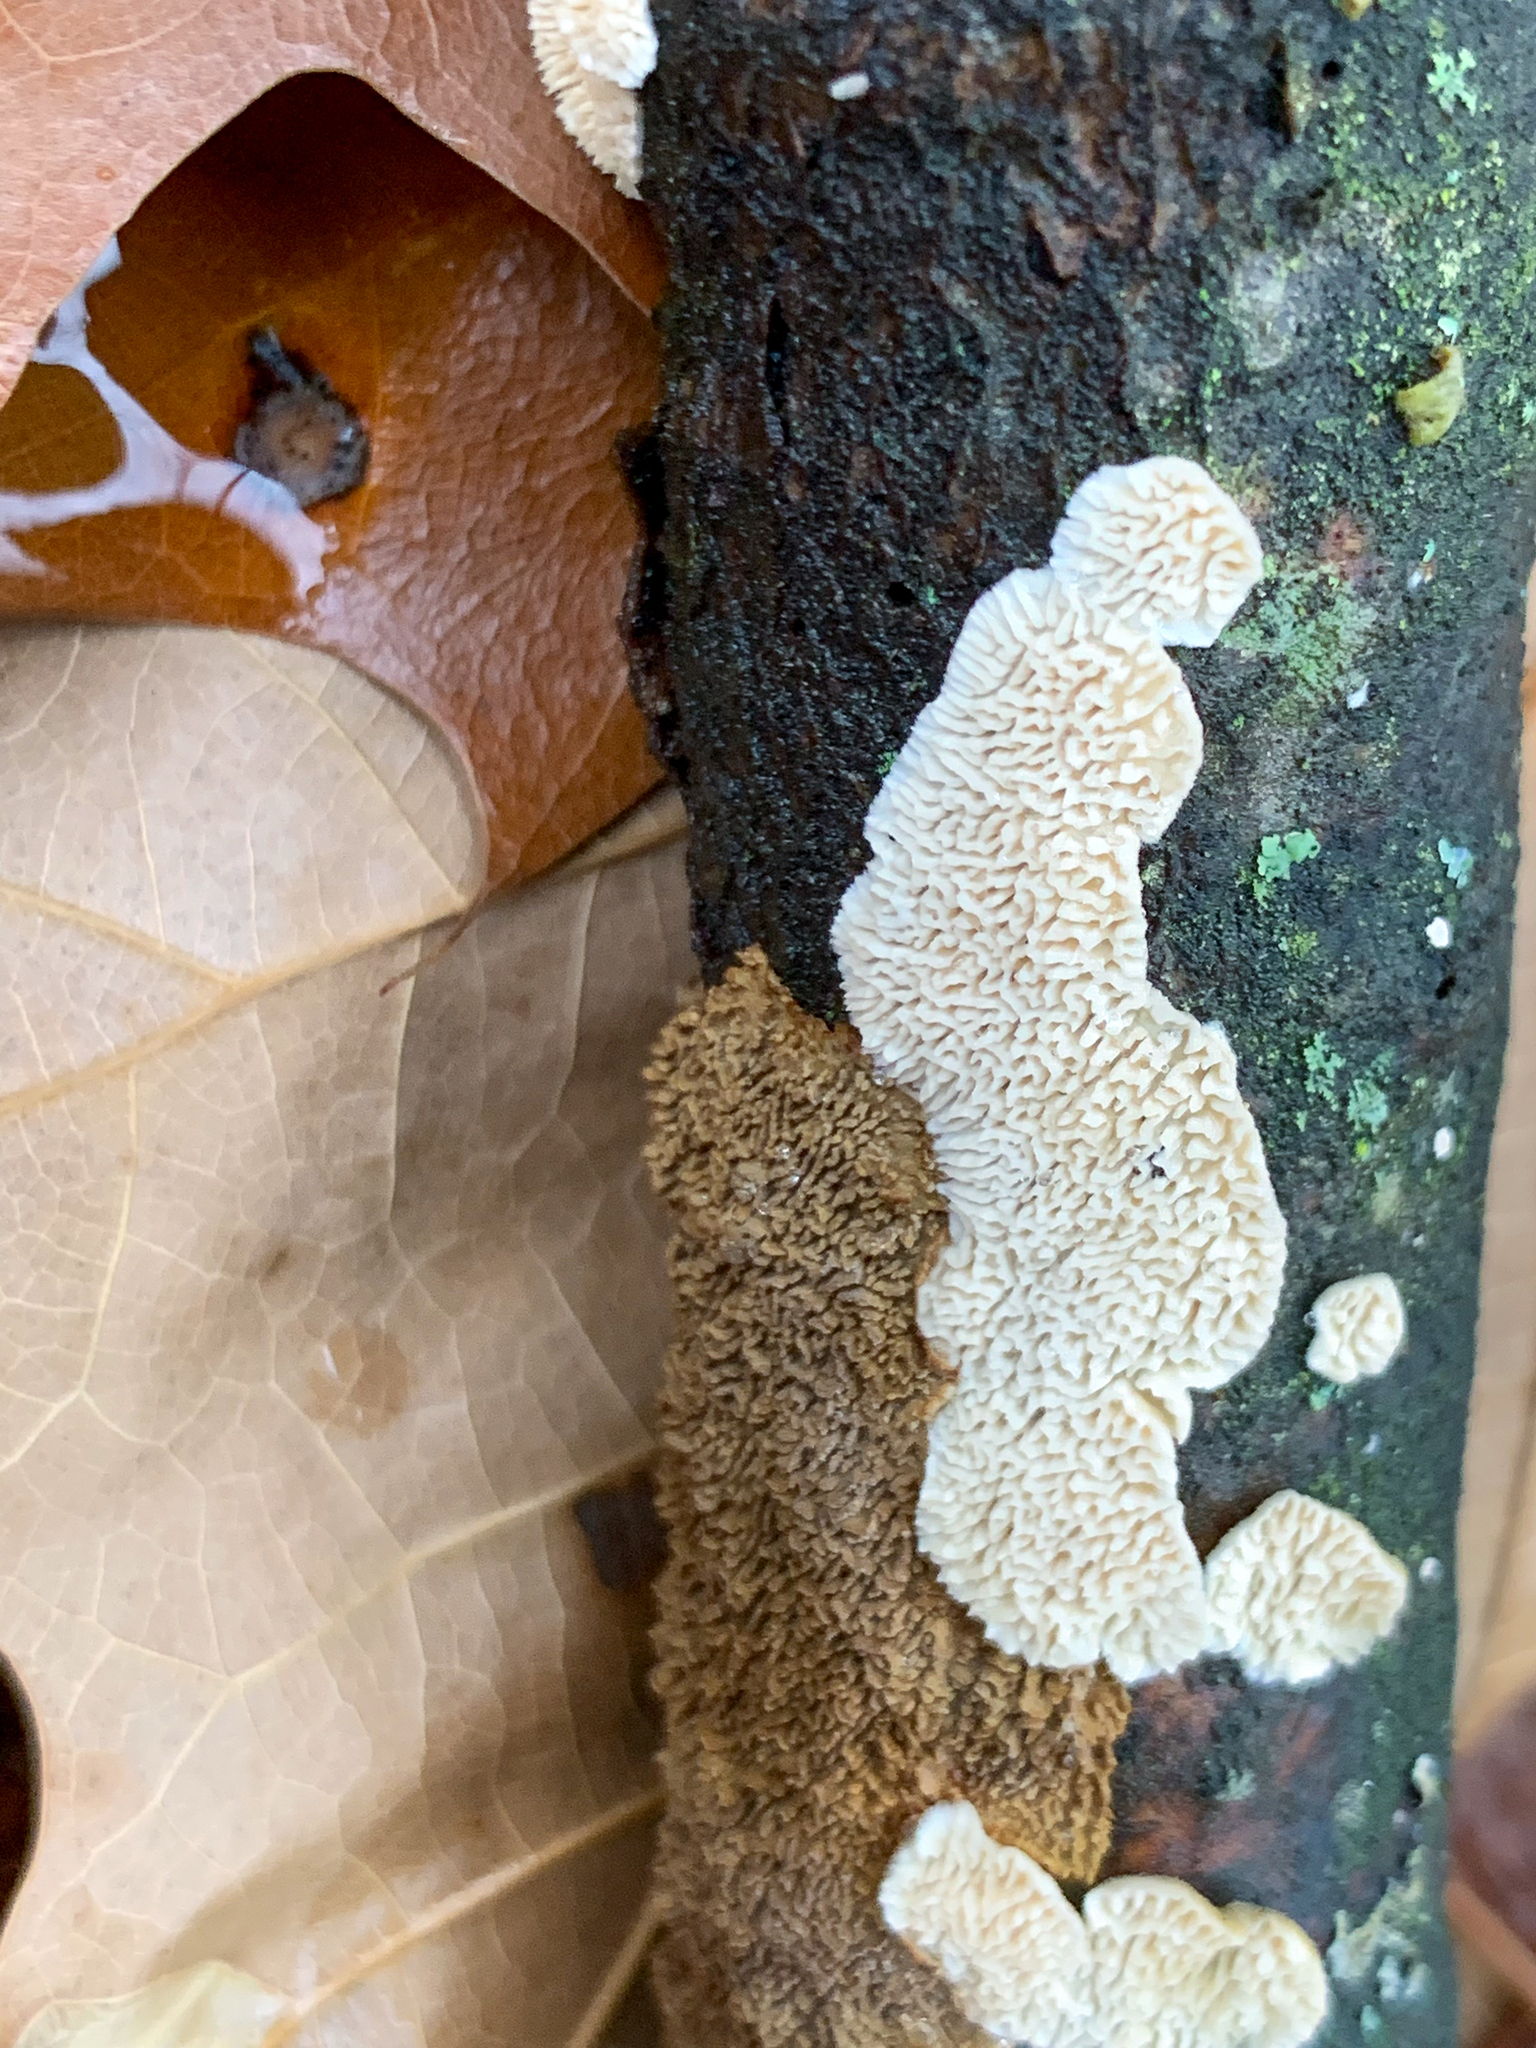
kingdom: Fungi
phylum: Basidiomycota
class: Agaricomycetes
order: Hymenochaetales
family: Schizoporaceae
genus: Schizopora
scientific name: Schizopora paradoxa
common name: Split porecrust
